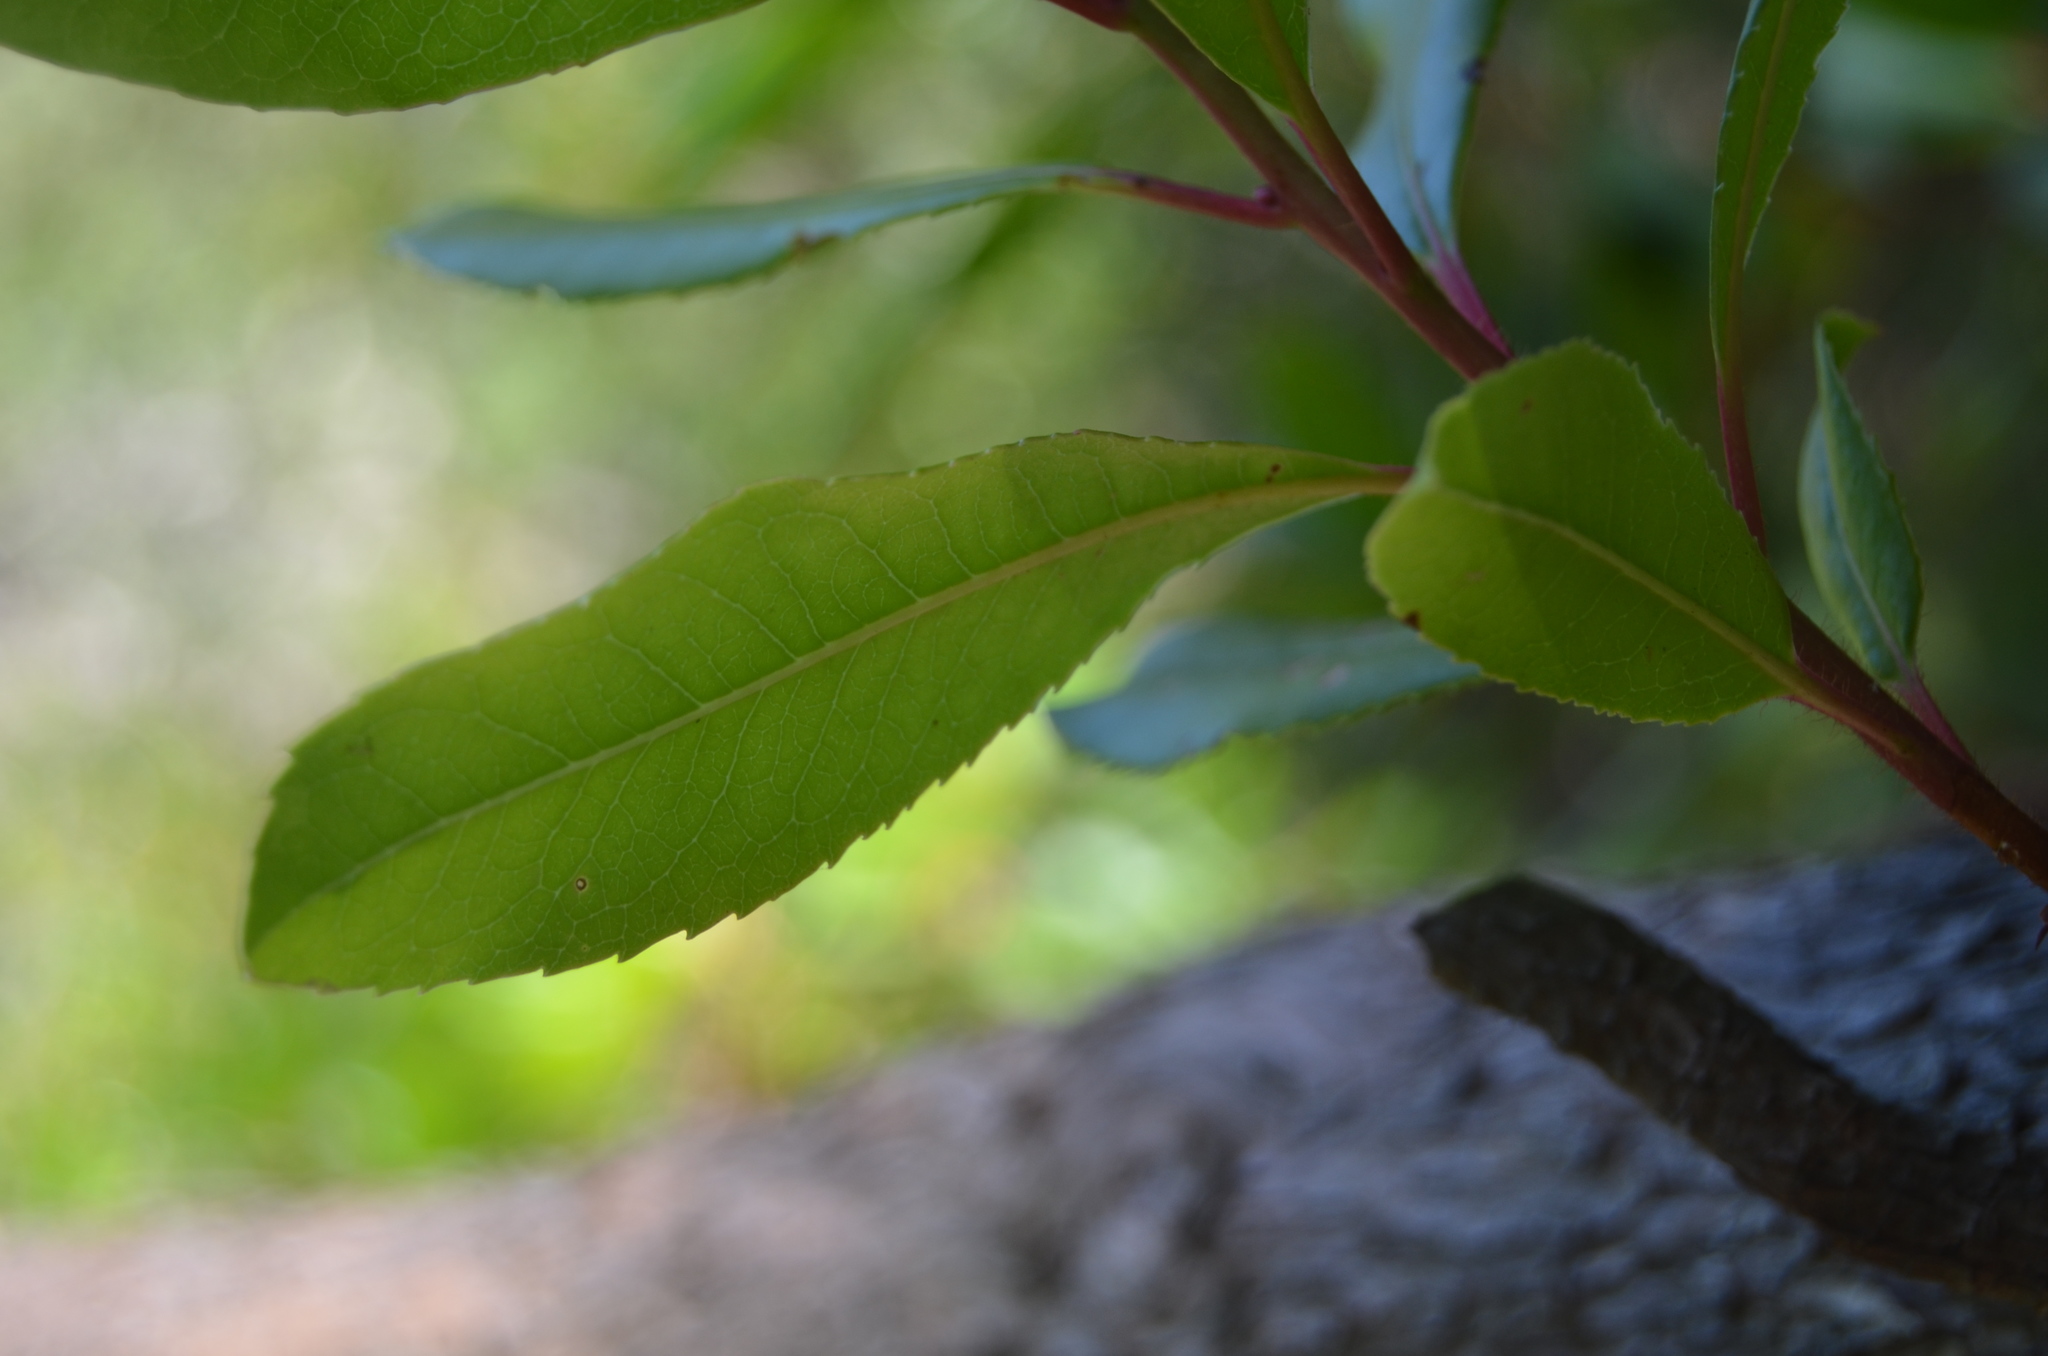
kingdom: Plantae
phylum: Tracheophyta
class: Magnoliopsida
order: Ericales
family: Ericaceae
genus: Arbutus
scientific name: Arbutus unedo
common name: Strawberry-tree
